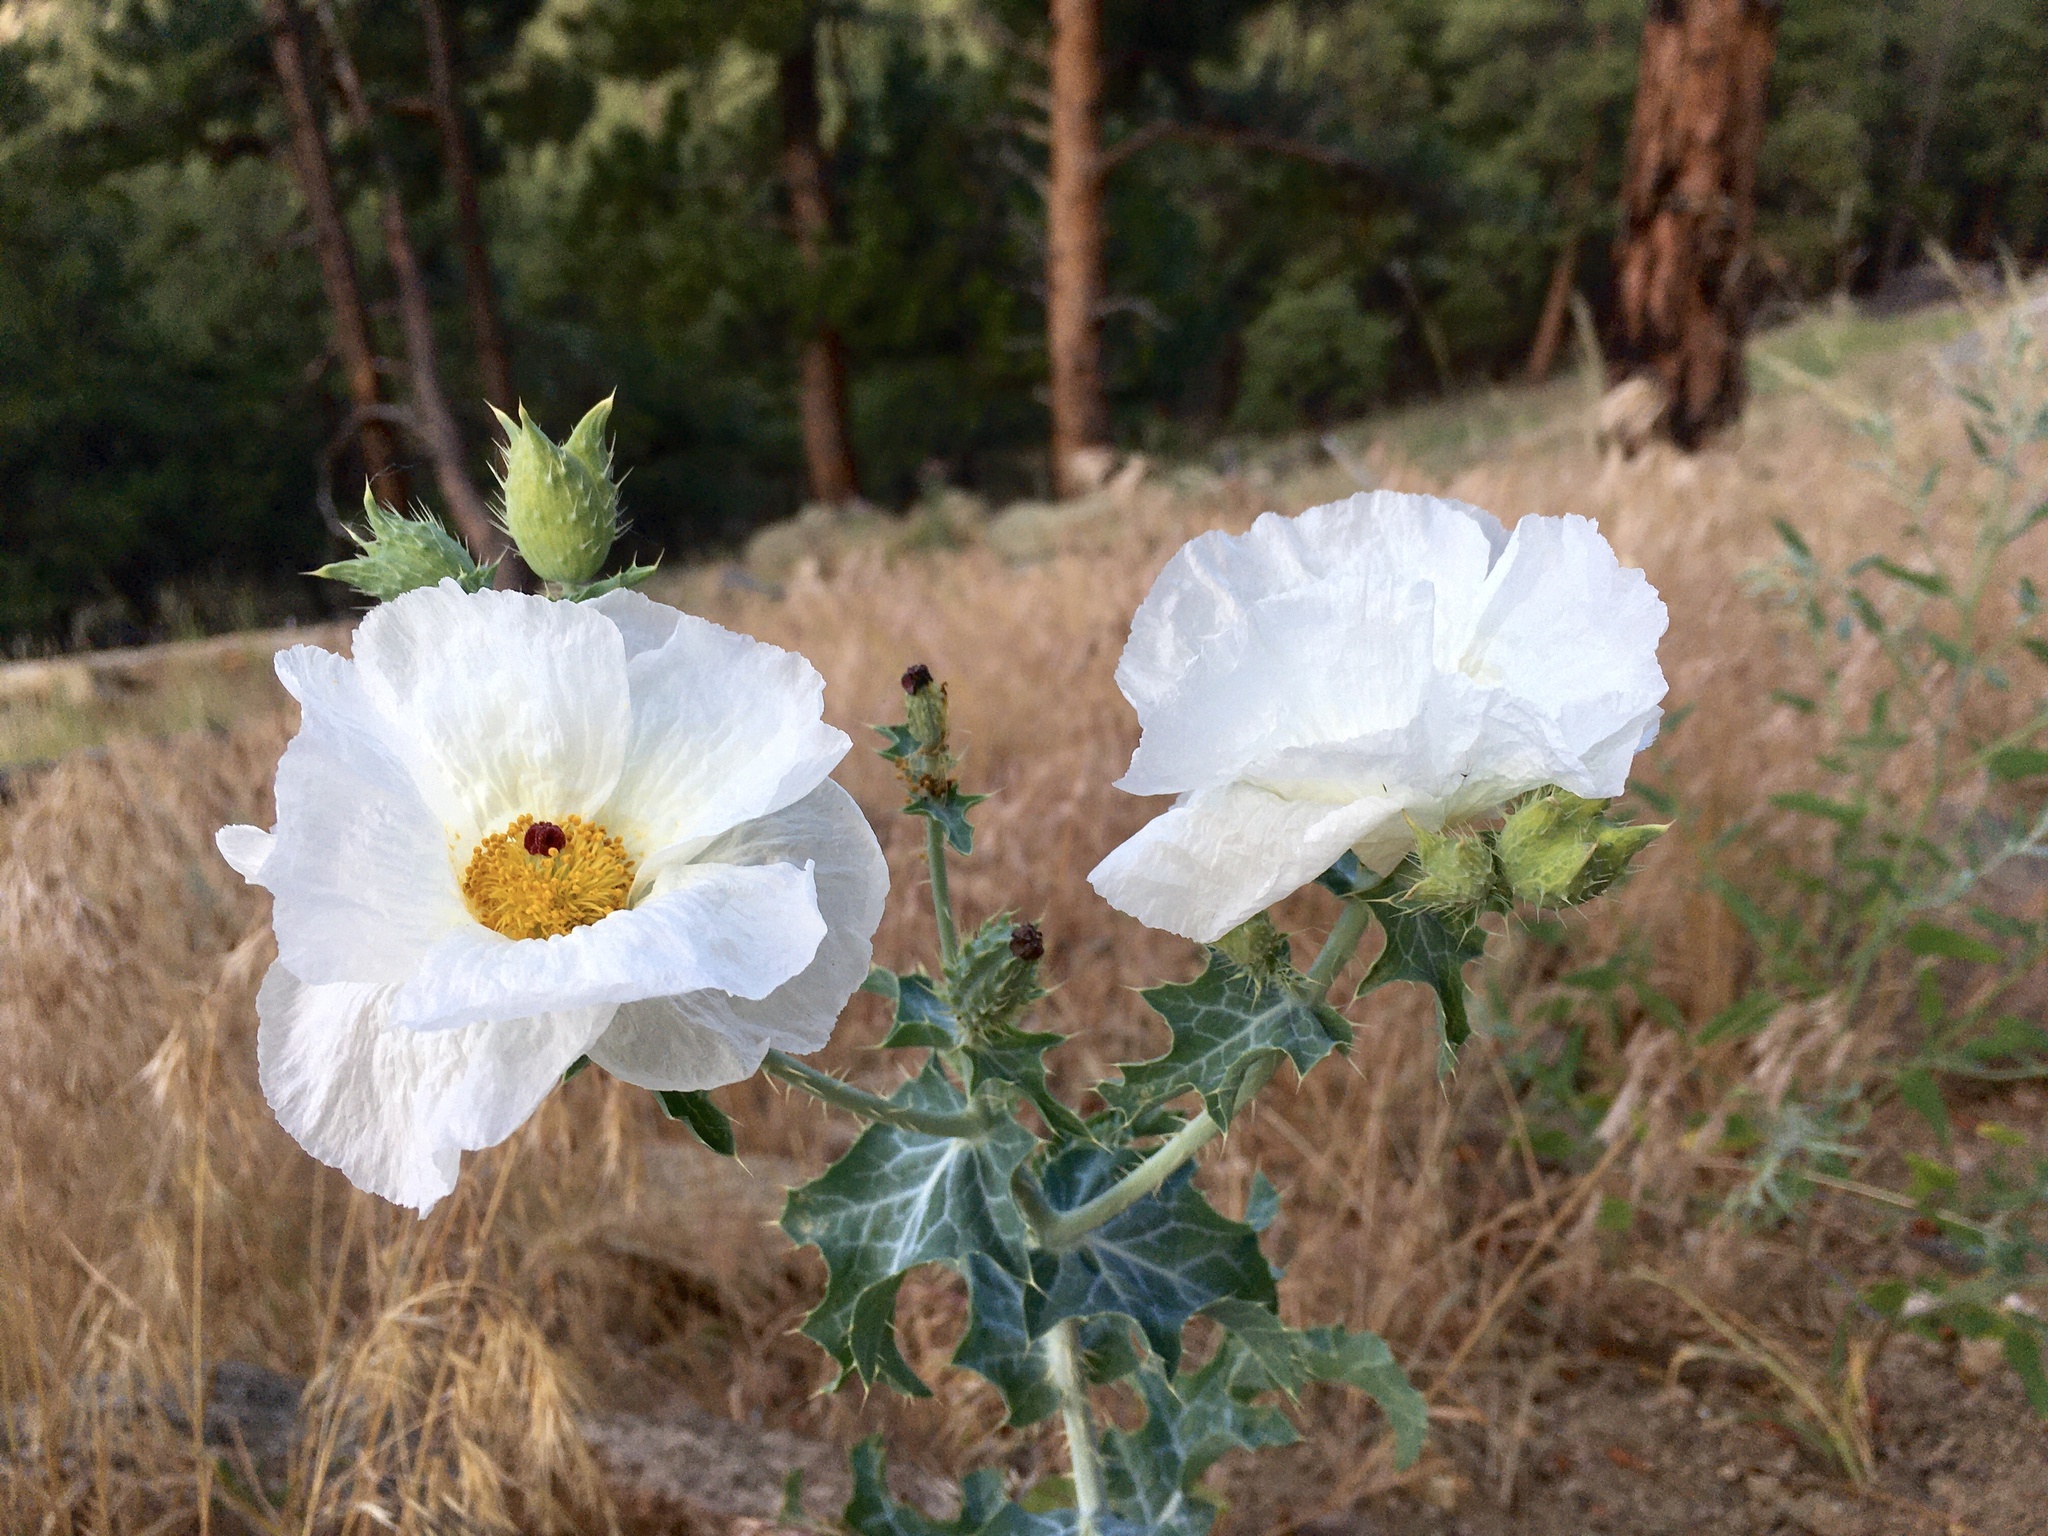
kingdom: Plantae
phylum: Tracheophyta
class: Magnoliopsida
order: Ranunculales
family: Papaveraceae
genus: Argemone
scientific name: Argemone polyanthemos
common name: Plains prickly-poppy
